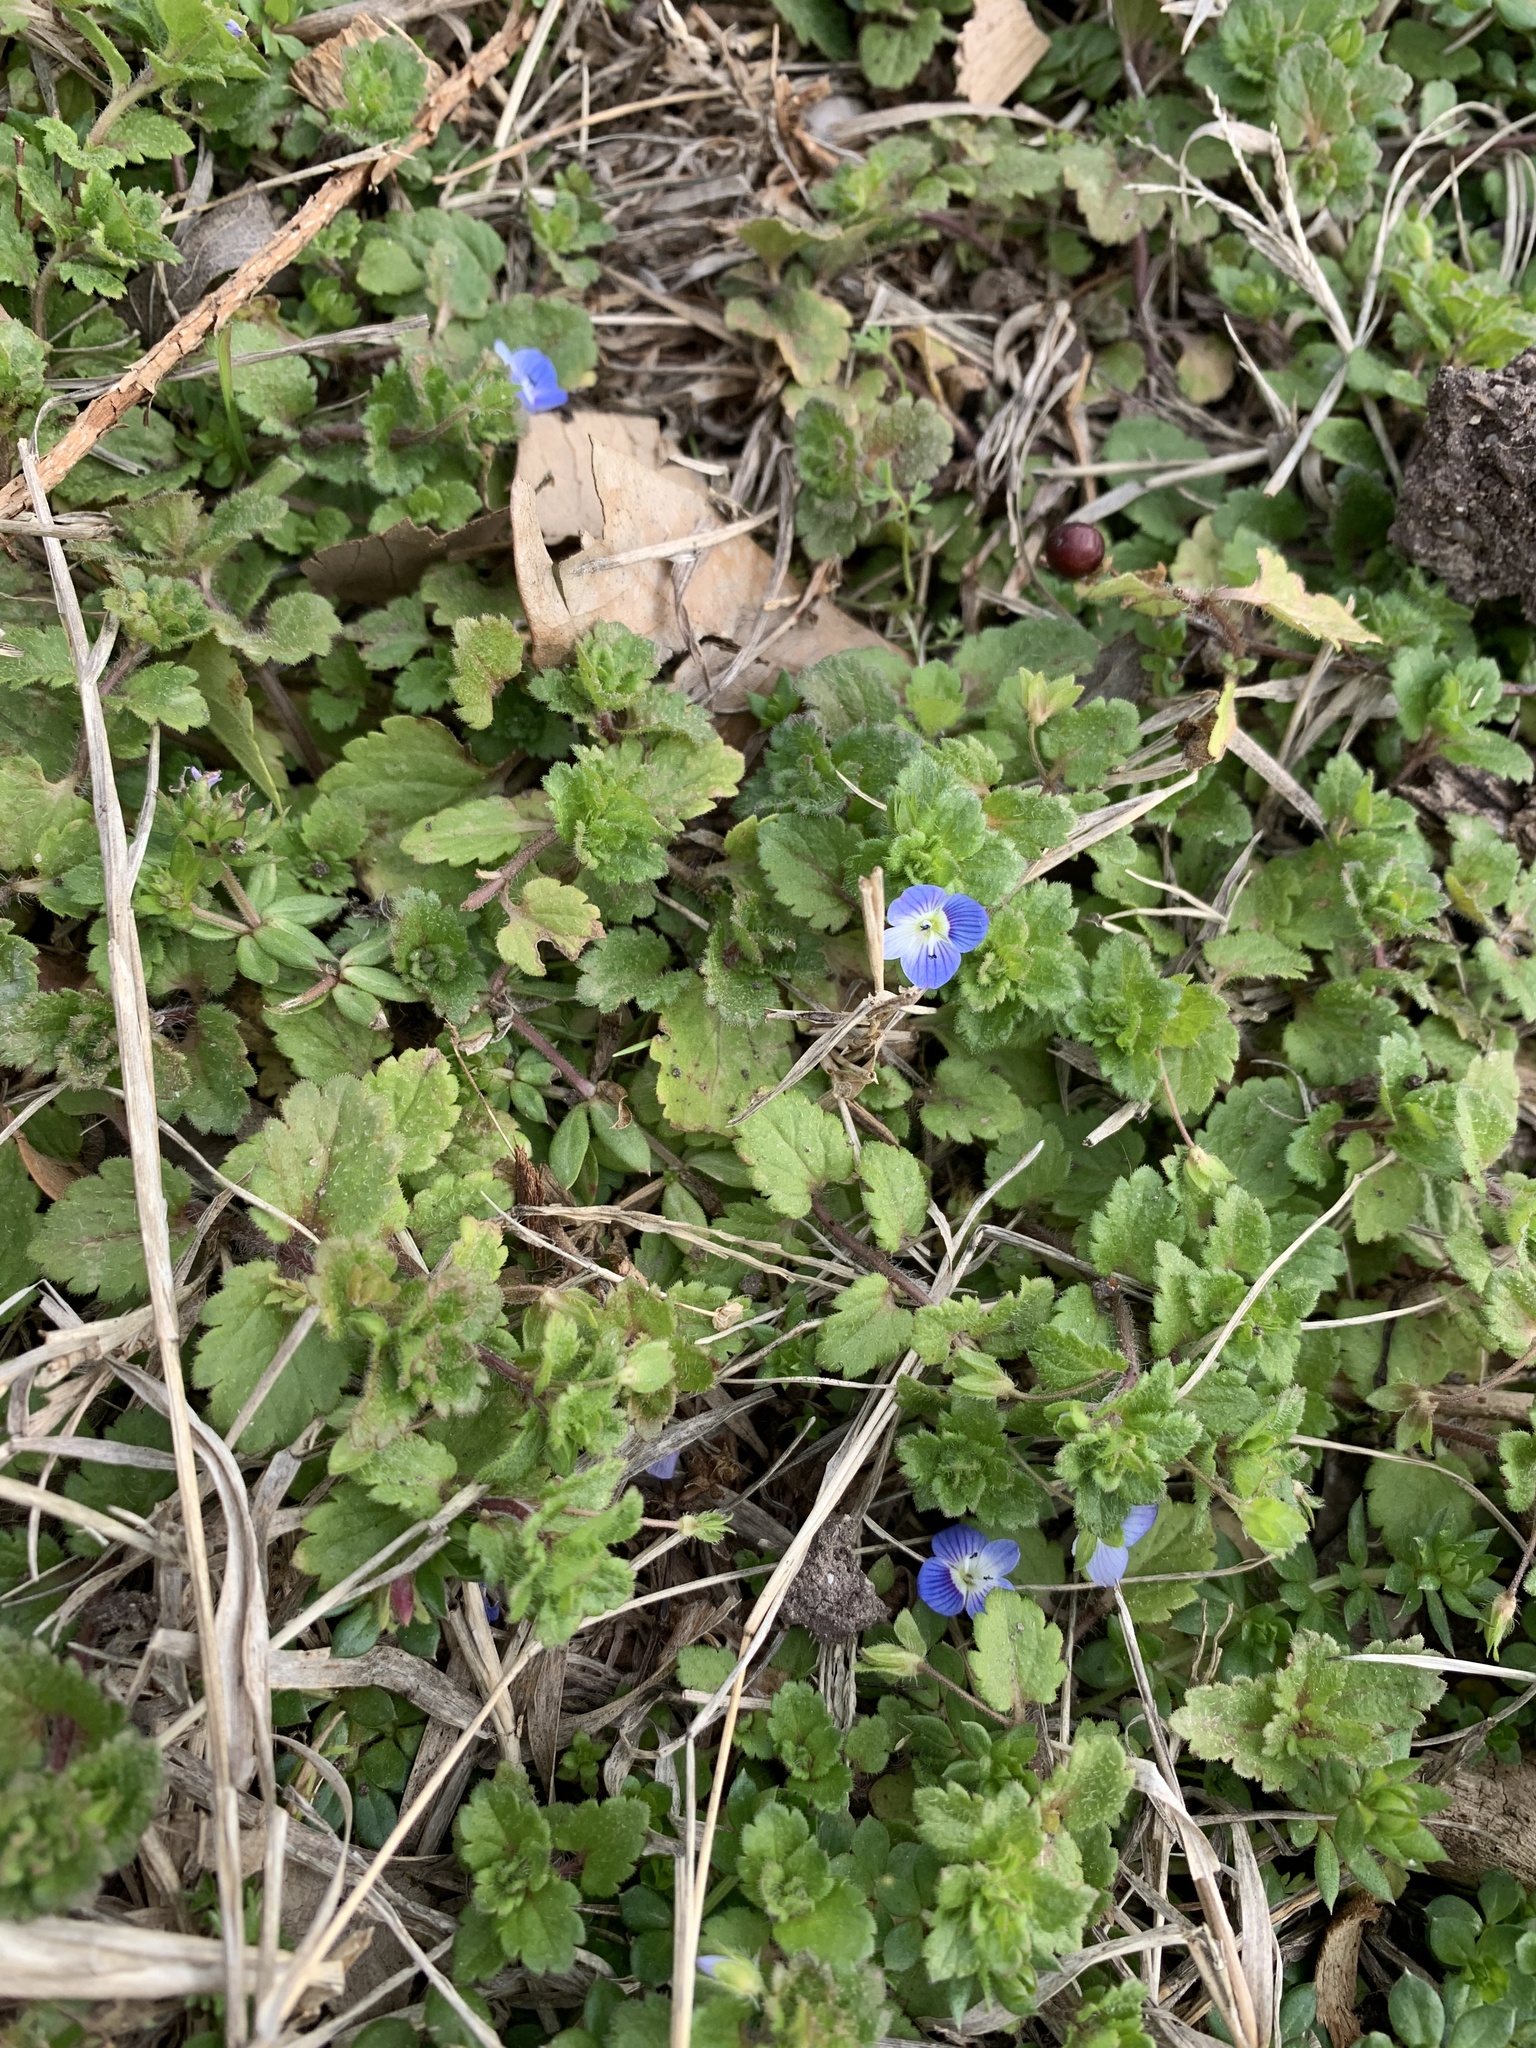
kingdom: Plantae
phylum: Tracheophyta
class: Magnoliopsida
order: Lamiales
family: Plantaginaceae
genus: Veronica
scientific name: Veronica persica
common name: Common field-speedwell
